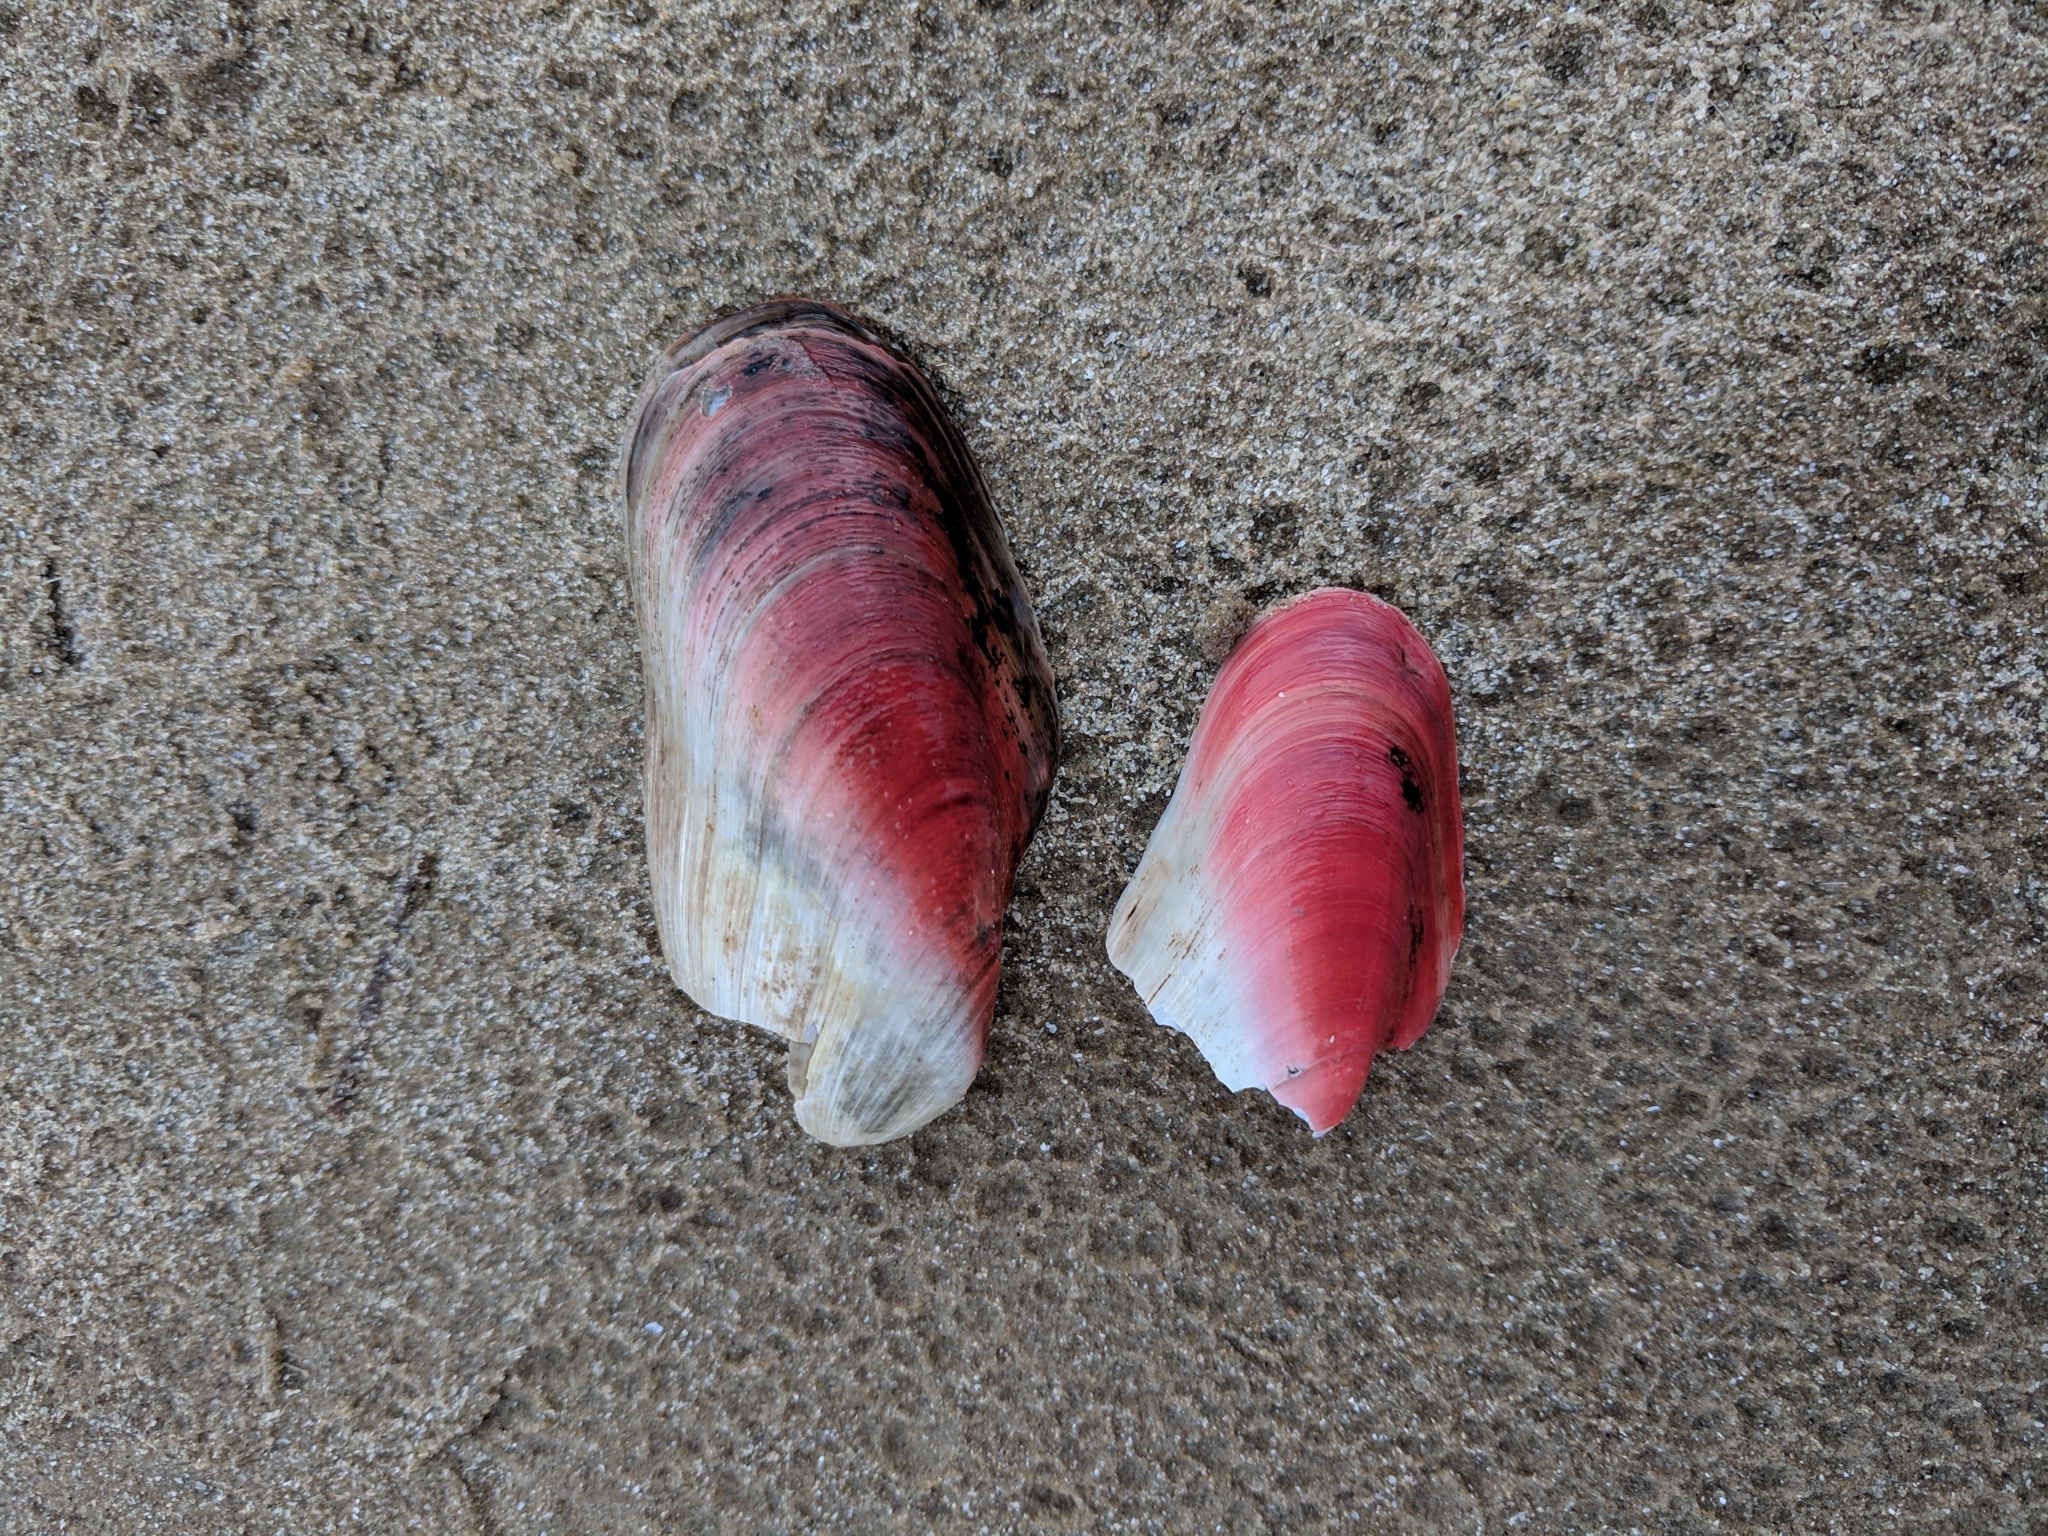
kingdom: Animalia
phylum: Mollusca
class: Bivalvia
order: Mytilida
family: Mytilidae
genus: Modiolus
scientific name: Modiolus americanus
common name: Tulip mussel
